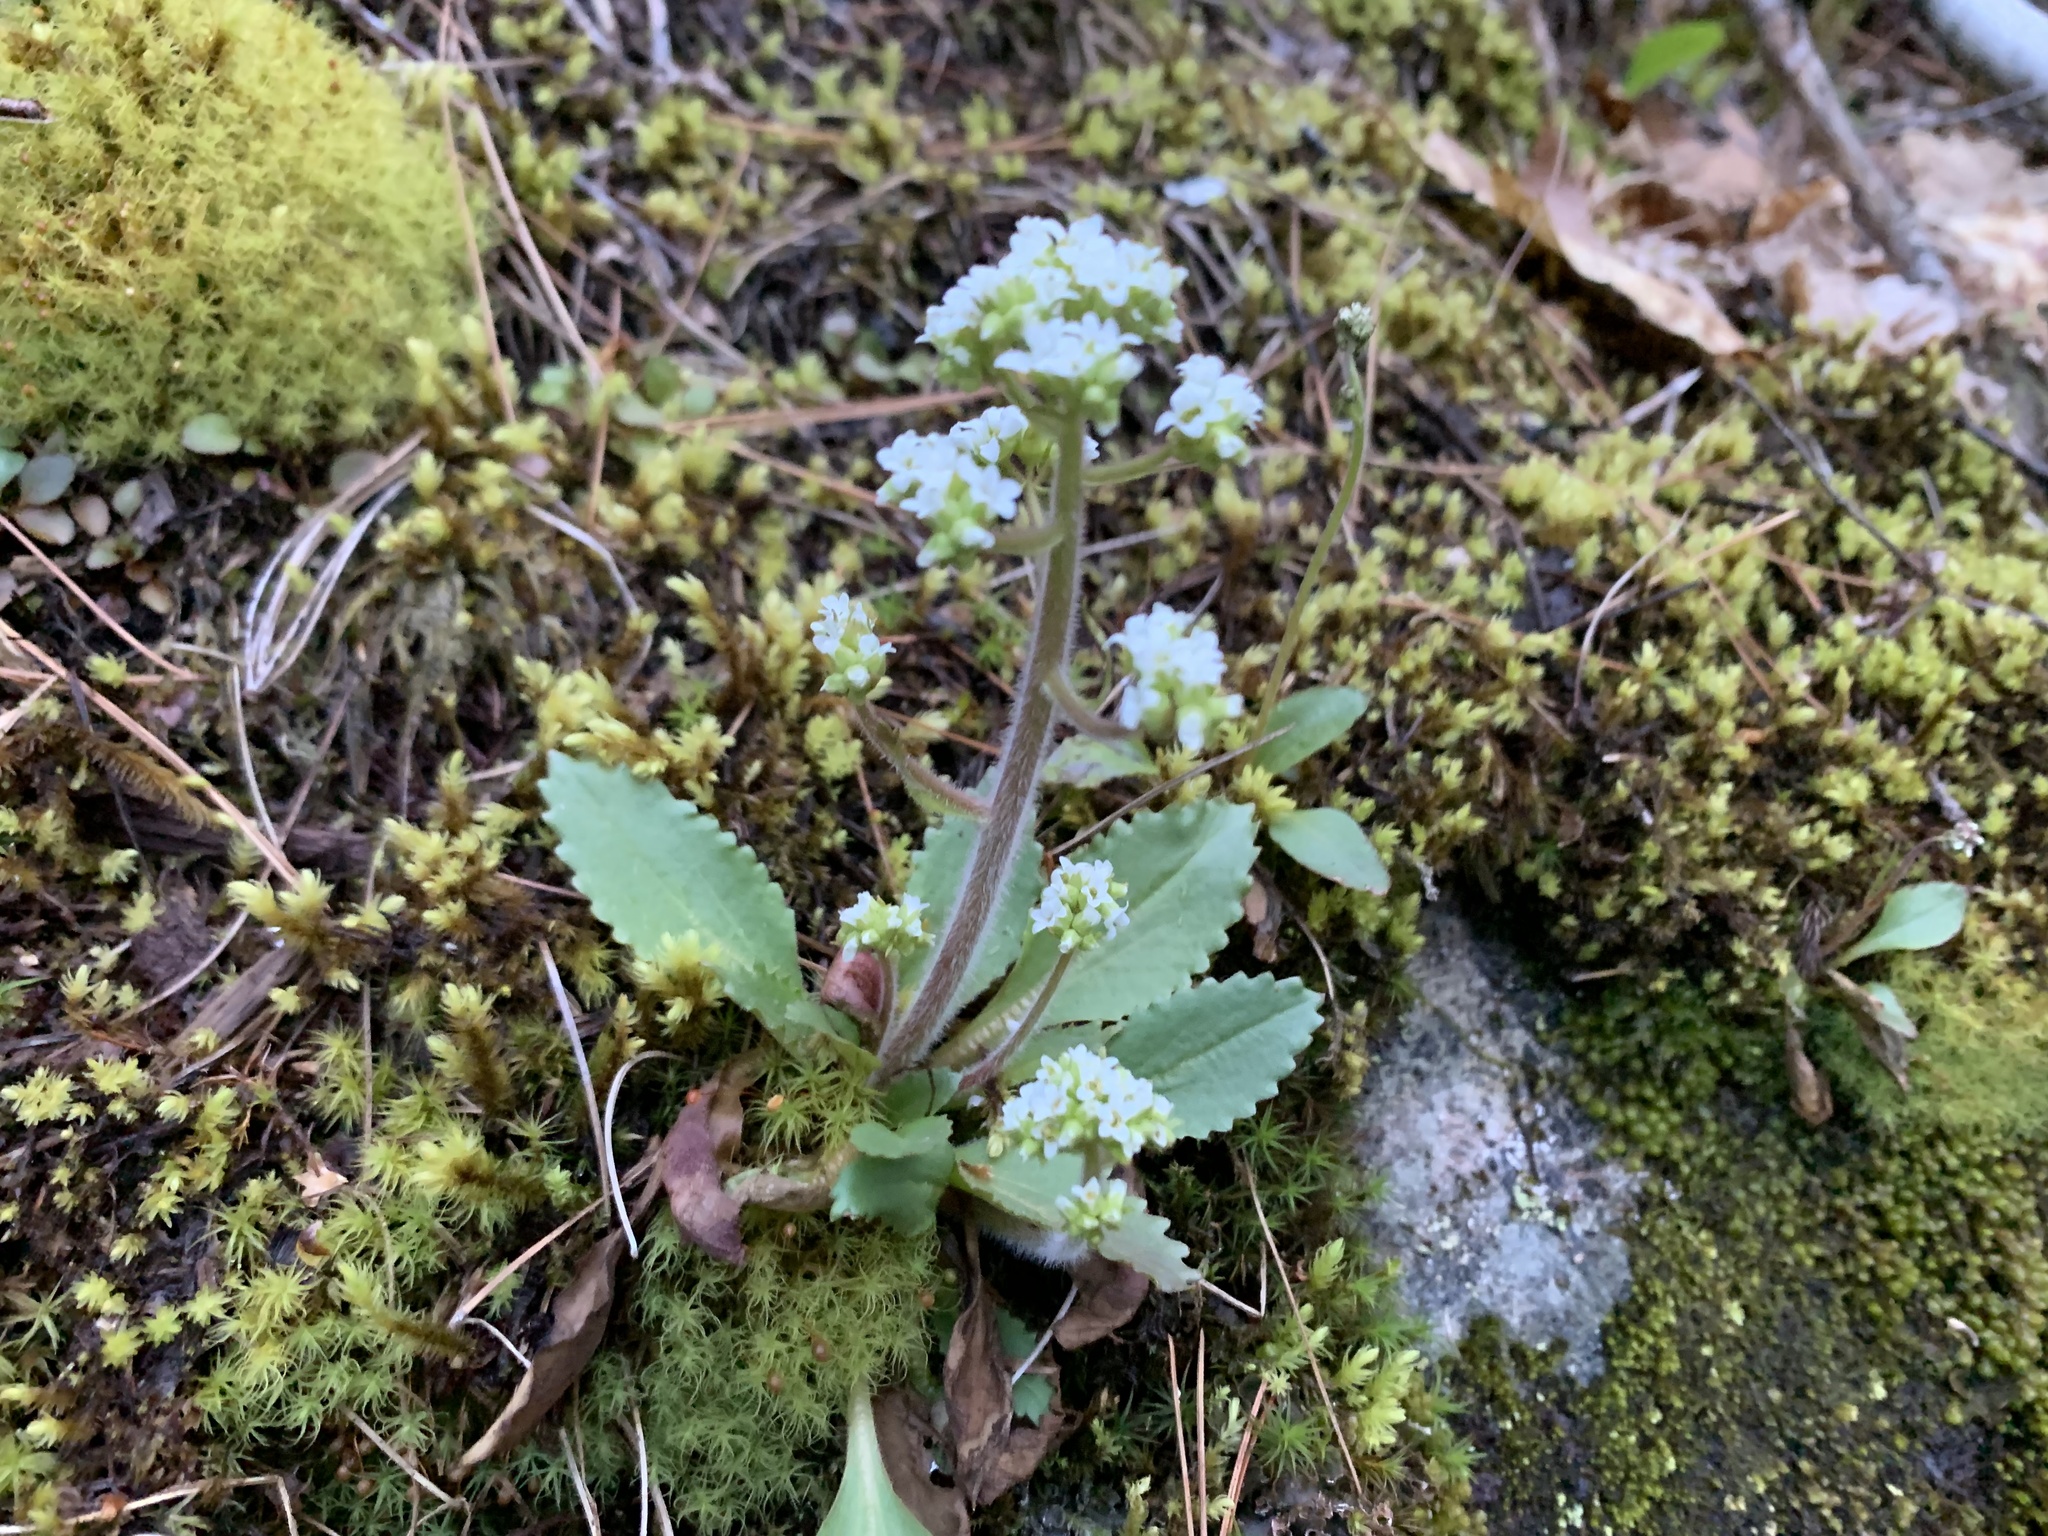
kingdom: Plantae
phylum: Tracheophyta
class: Magnoliopsida
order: Saxifragales
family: Saxifragaceae
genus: Micranthes
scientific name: Micranthes virginiensis
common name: Early saxifrage
